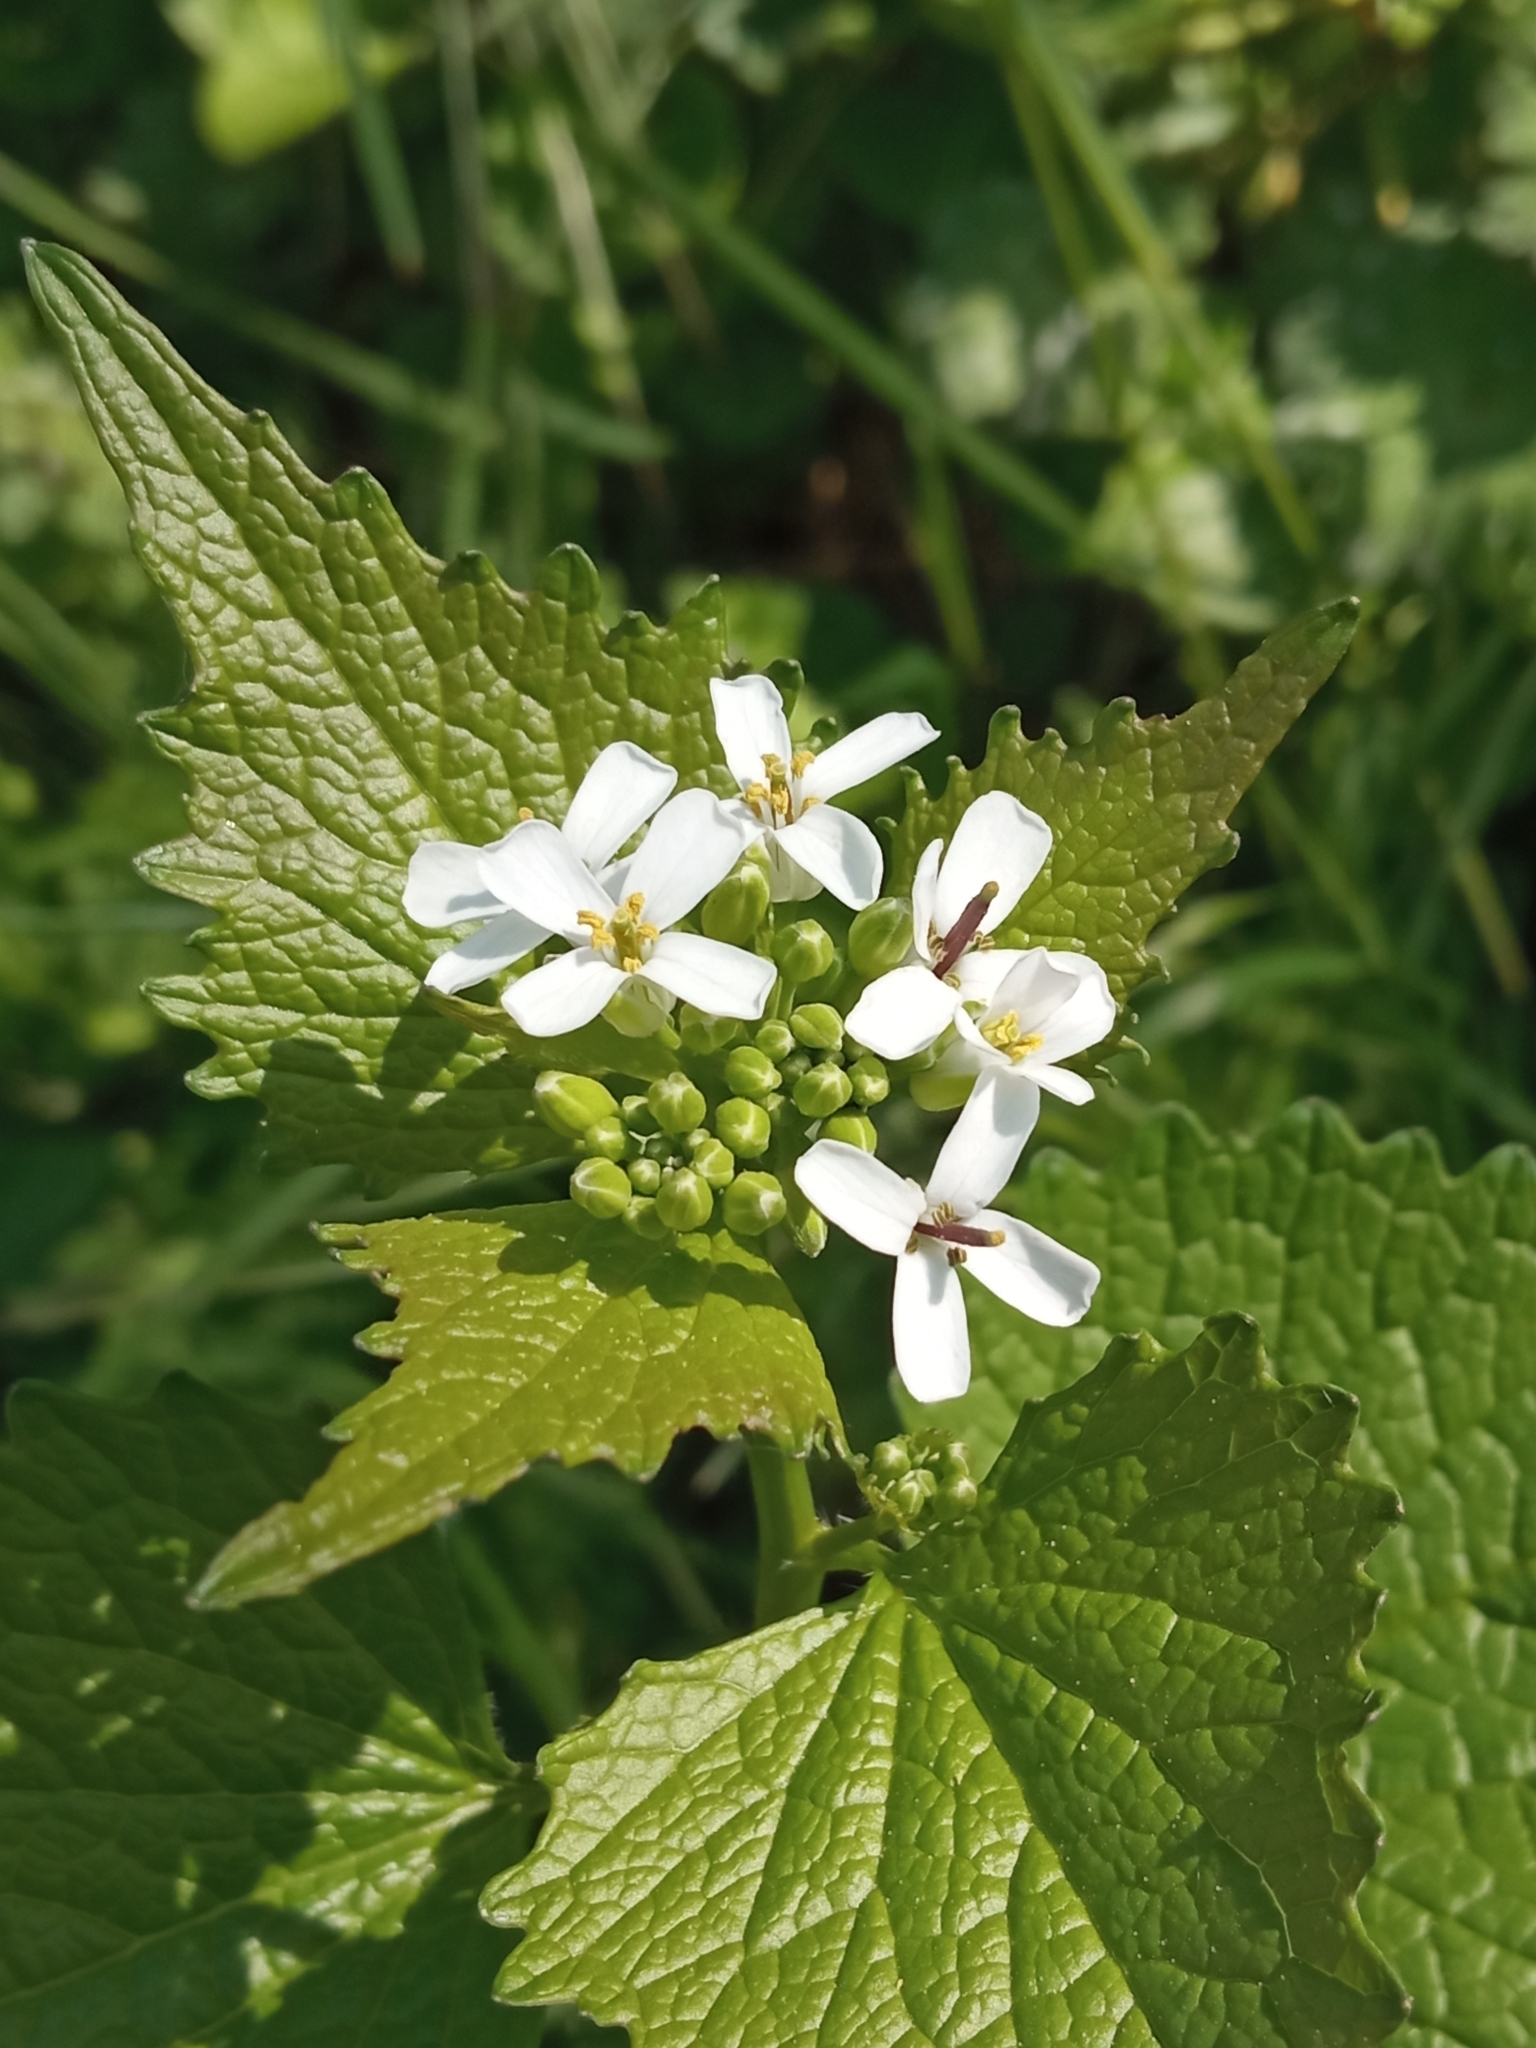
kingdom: Plantae
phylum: Tracheophyta
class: Magnoliopsida
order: Brassicales
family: Brassicaceae
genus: Alliaria
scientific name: Alliaria petiolata
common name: Garlic mustard
